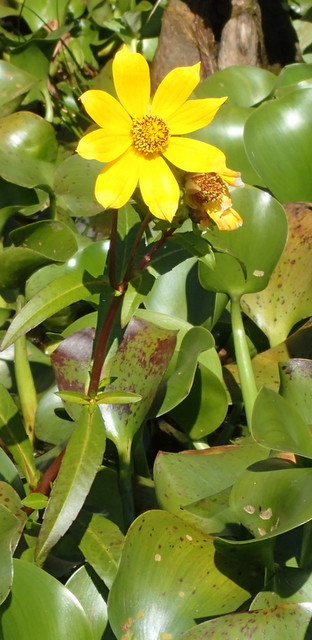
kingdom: Plantae
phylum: Tracheophyta
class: Magnoliopsida
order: Asterales
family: Asteraceae
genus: Bidens
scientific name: Bidens laevis
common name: Larger bur-marigold
